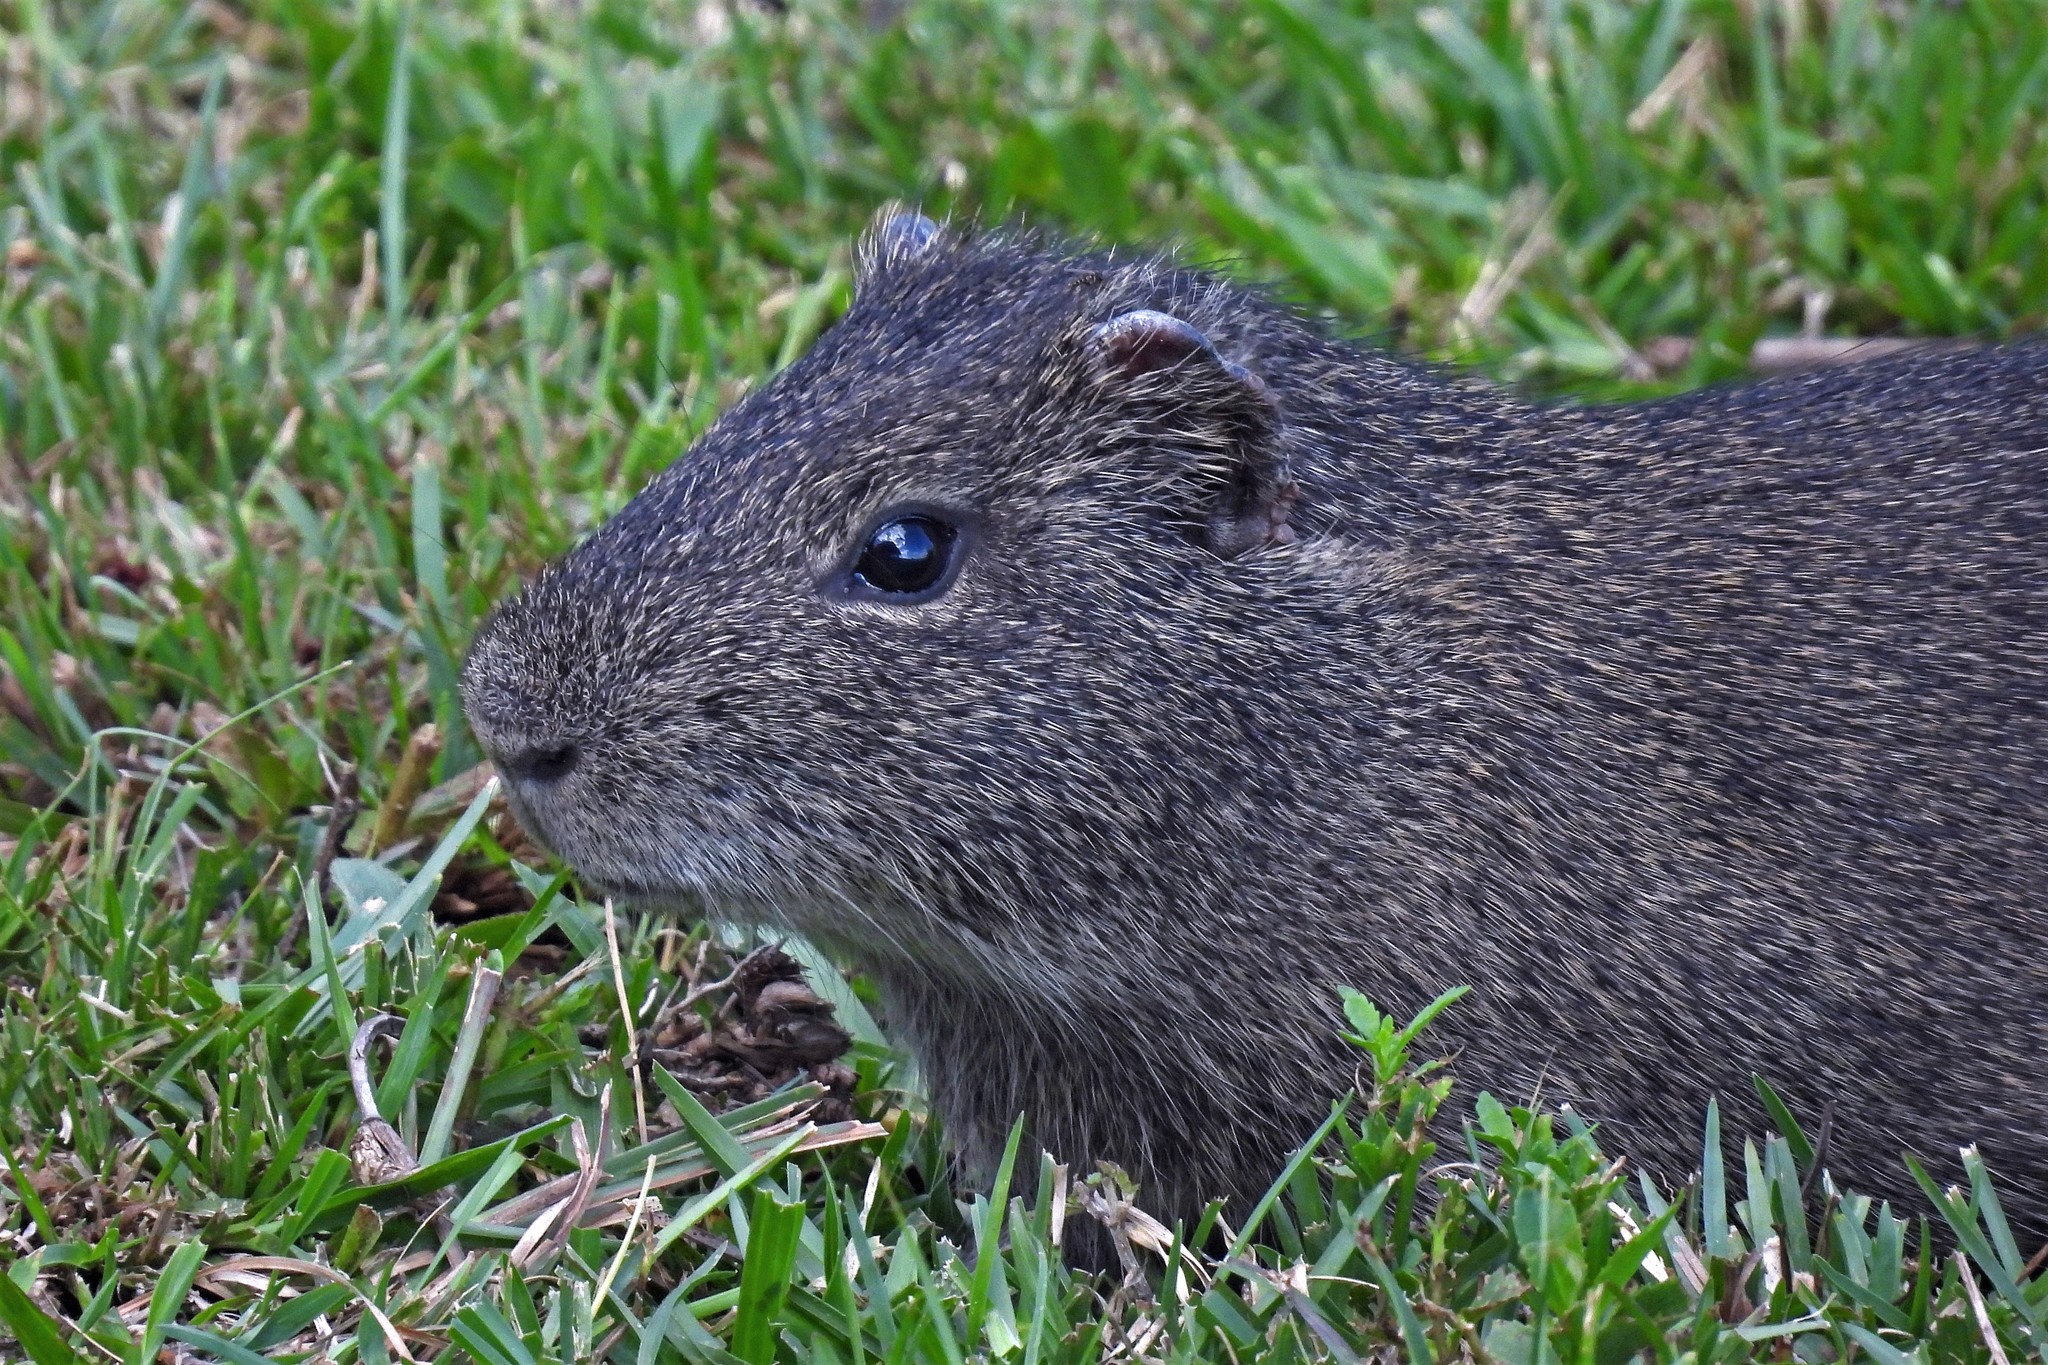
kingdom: Animalia
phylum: Chordata
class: Mammalia
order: Rodentia
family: Caviidae
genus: Cavia
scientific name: Cavia aperea
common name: Brazilian guinea pig
